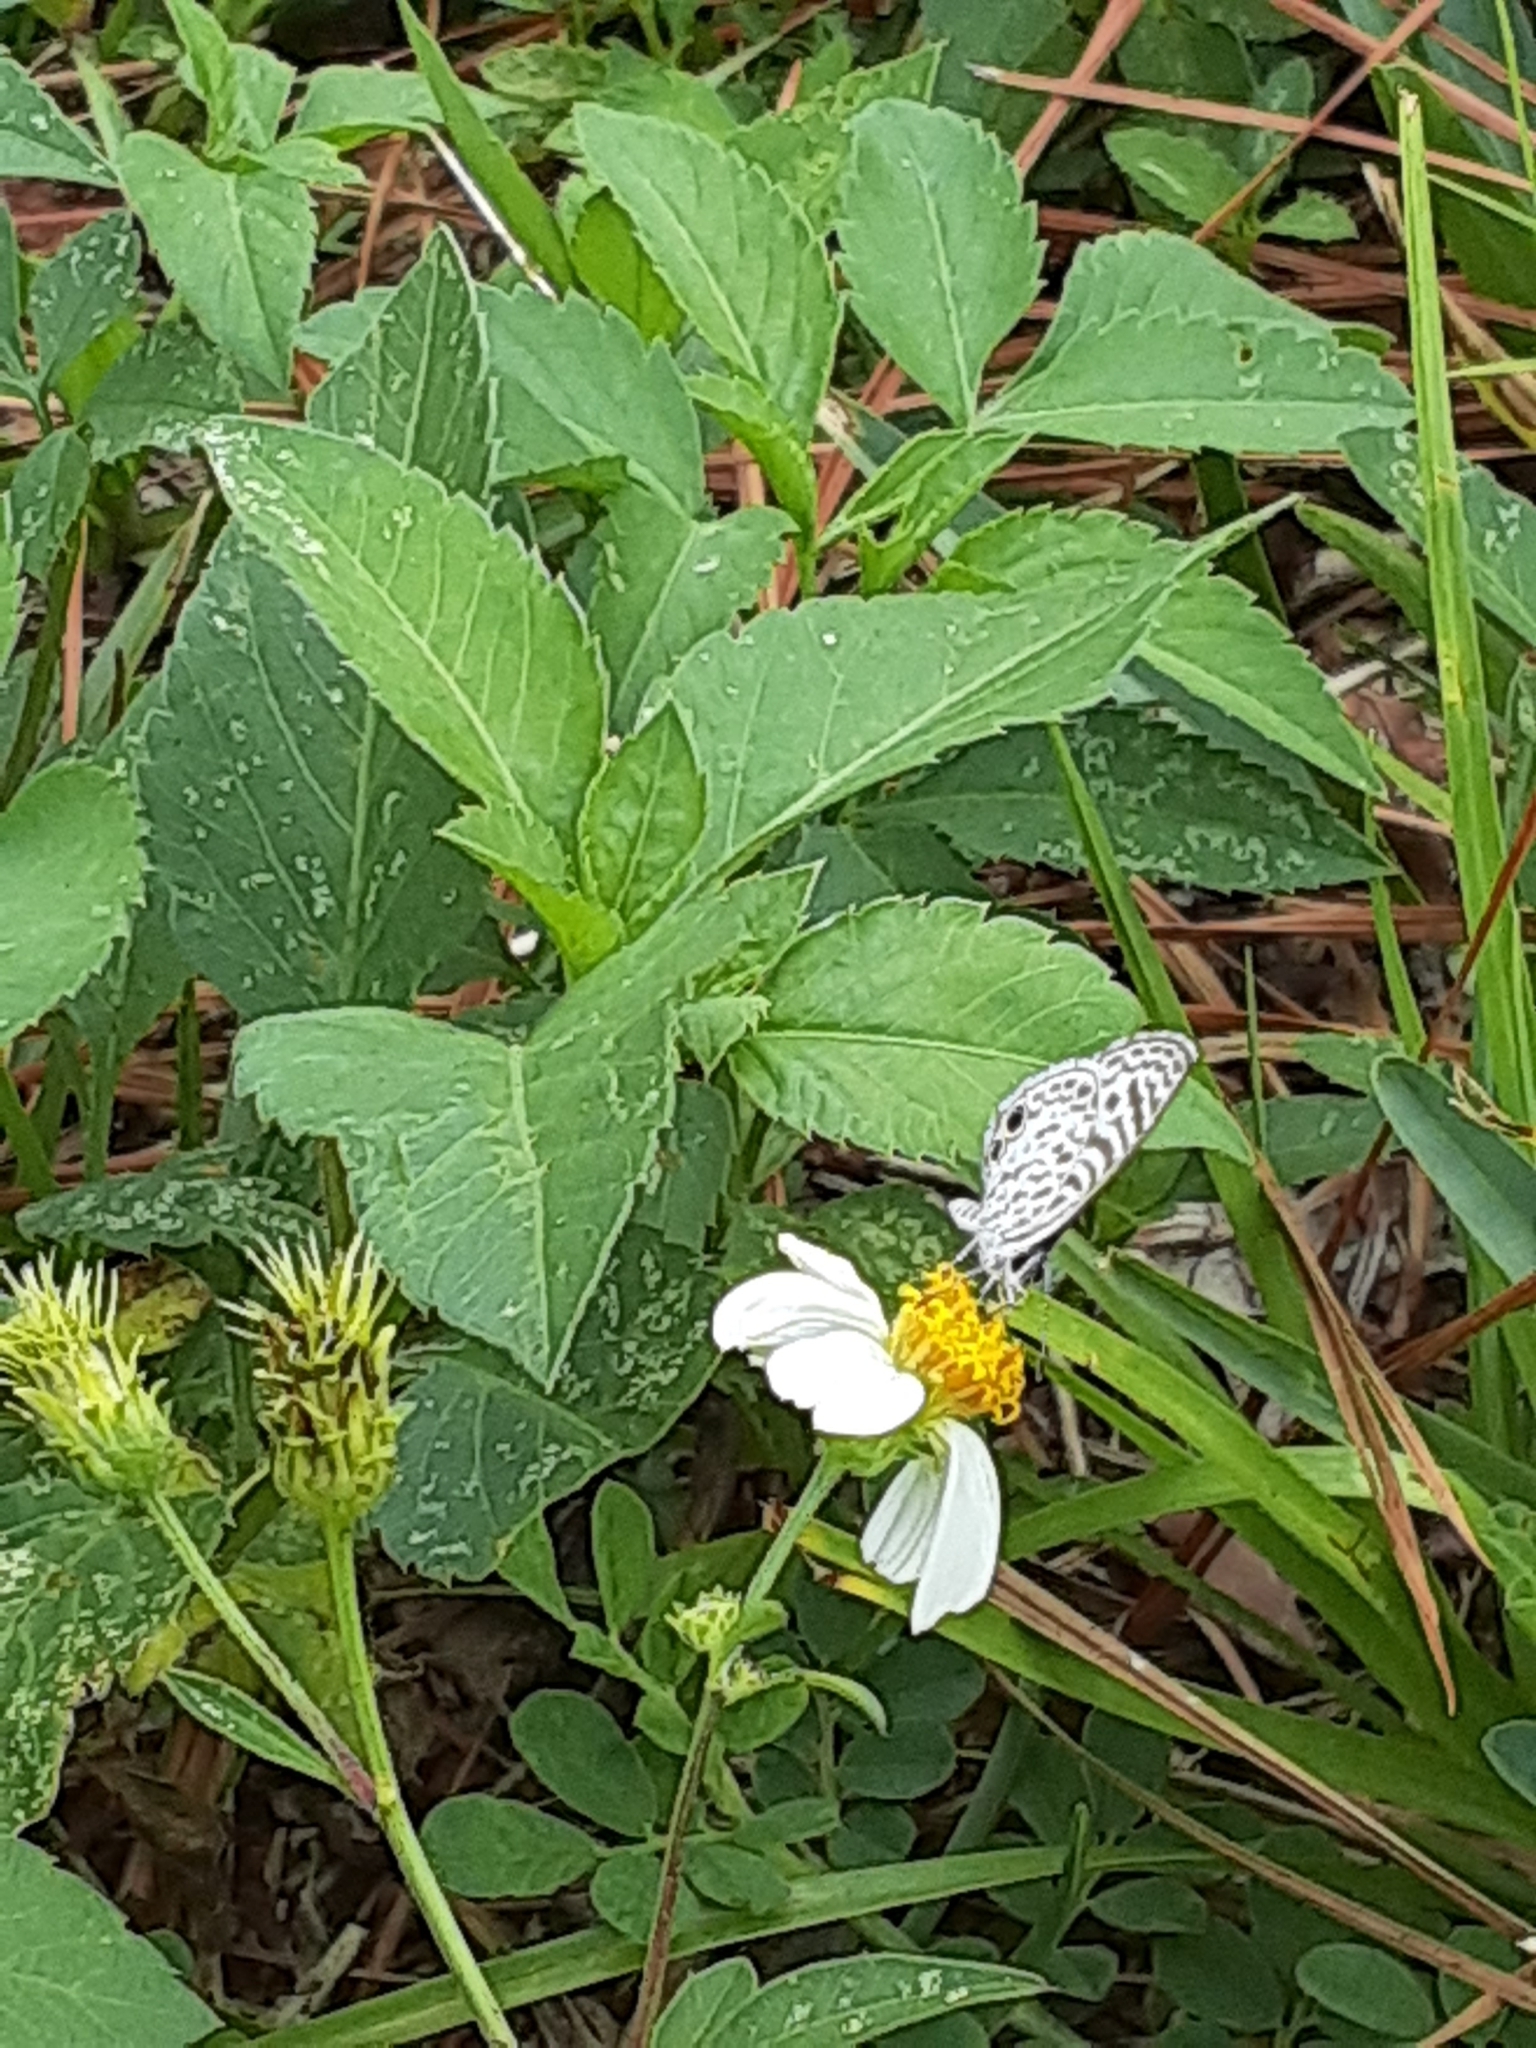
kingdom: Animalia
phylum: Arthropoda
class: Insecta
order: Lepidoptera
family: Lycaenidae
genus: Leptotes
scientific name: Leptotes cassius
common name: Cassius blue
